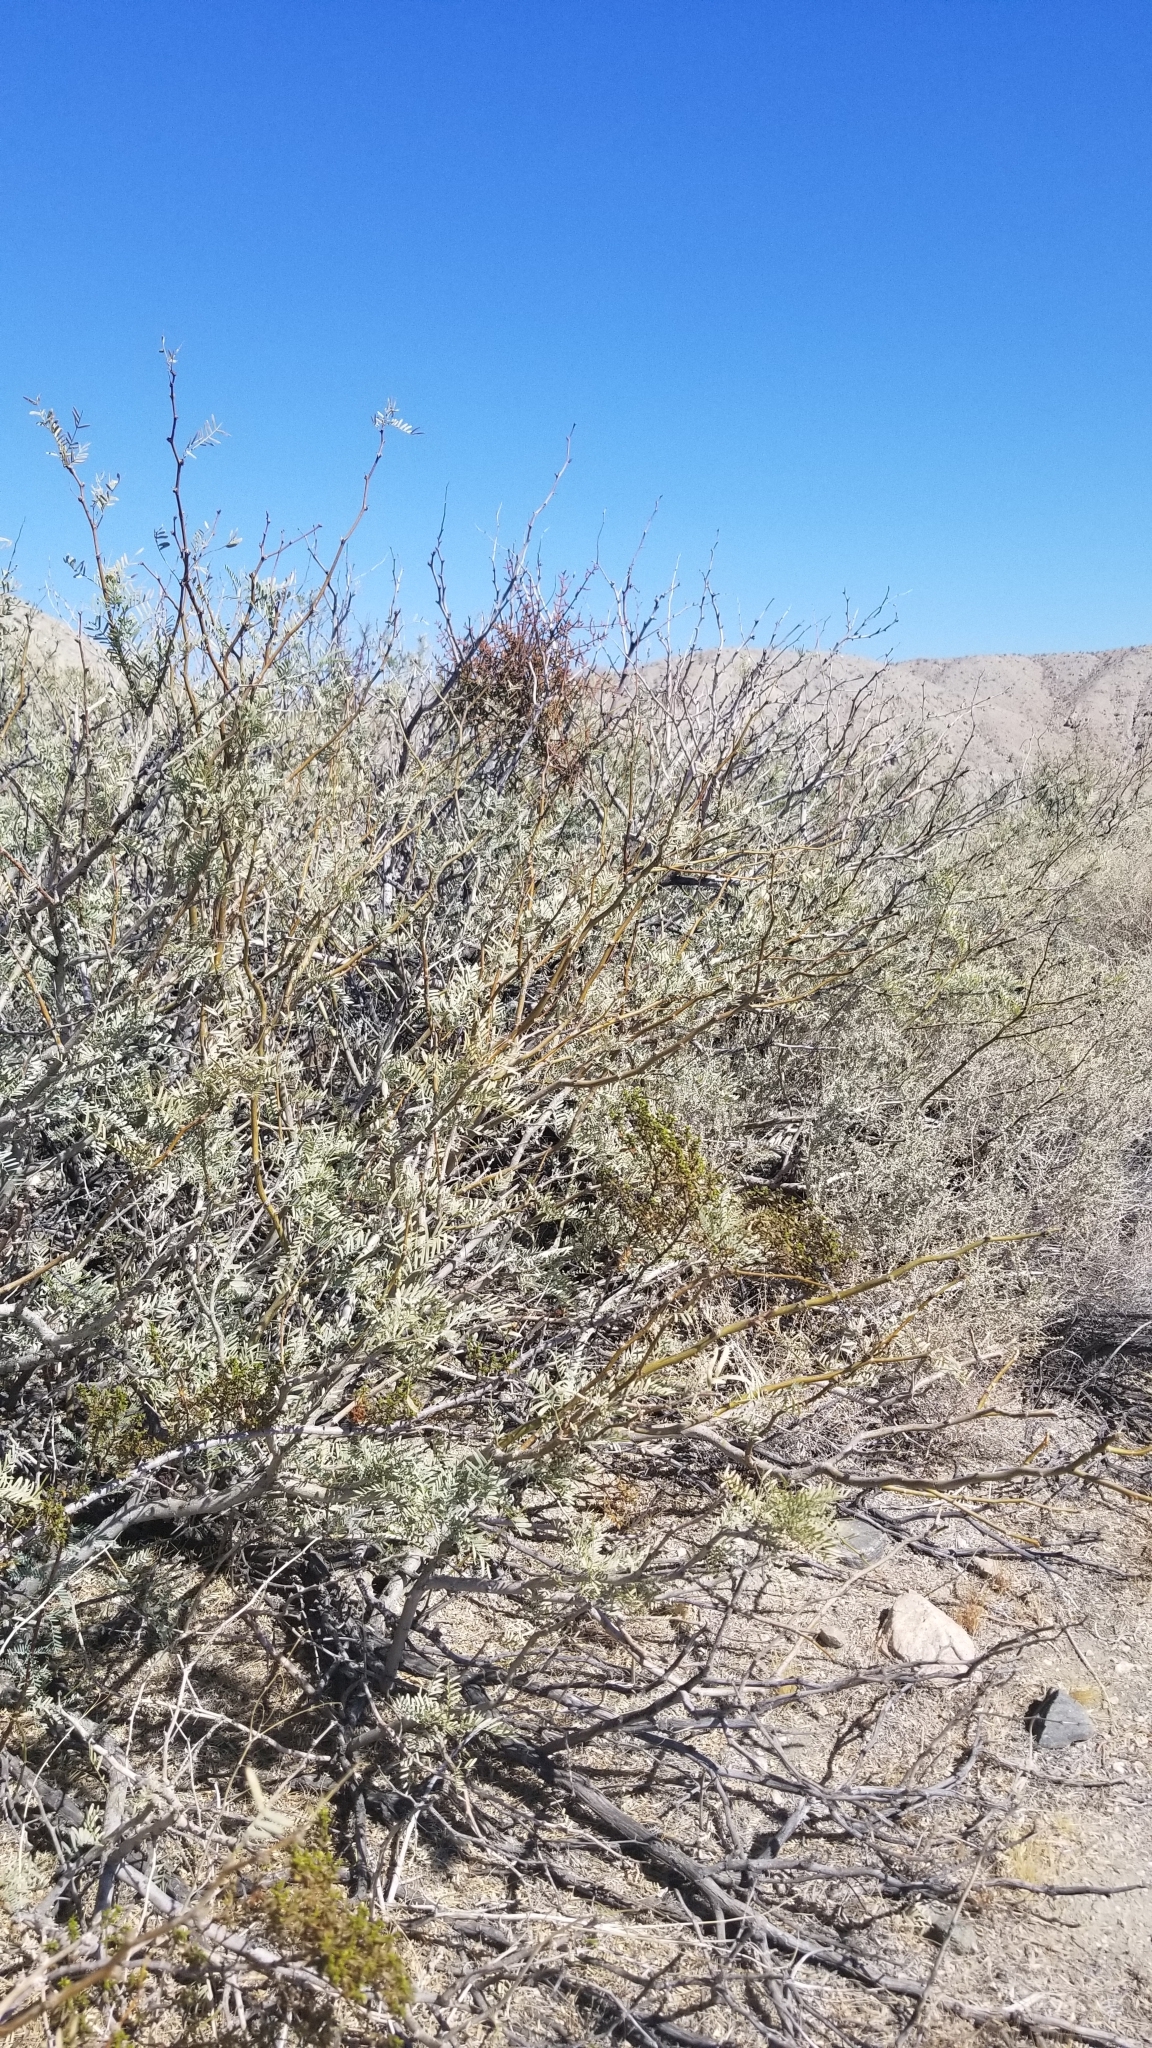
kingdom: Plantae
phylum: Tracheophyta
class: Magnoliopsida
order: Santalales
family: Viscaceae
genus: Phoradendron
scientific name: Phoradendron californicum
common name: Acacia mistletoe
